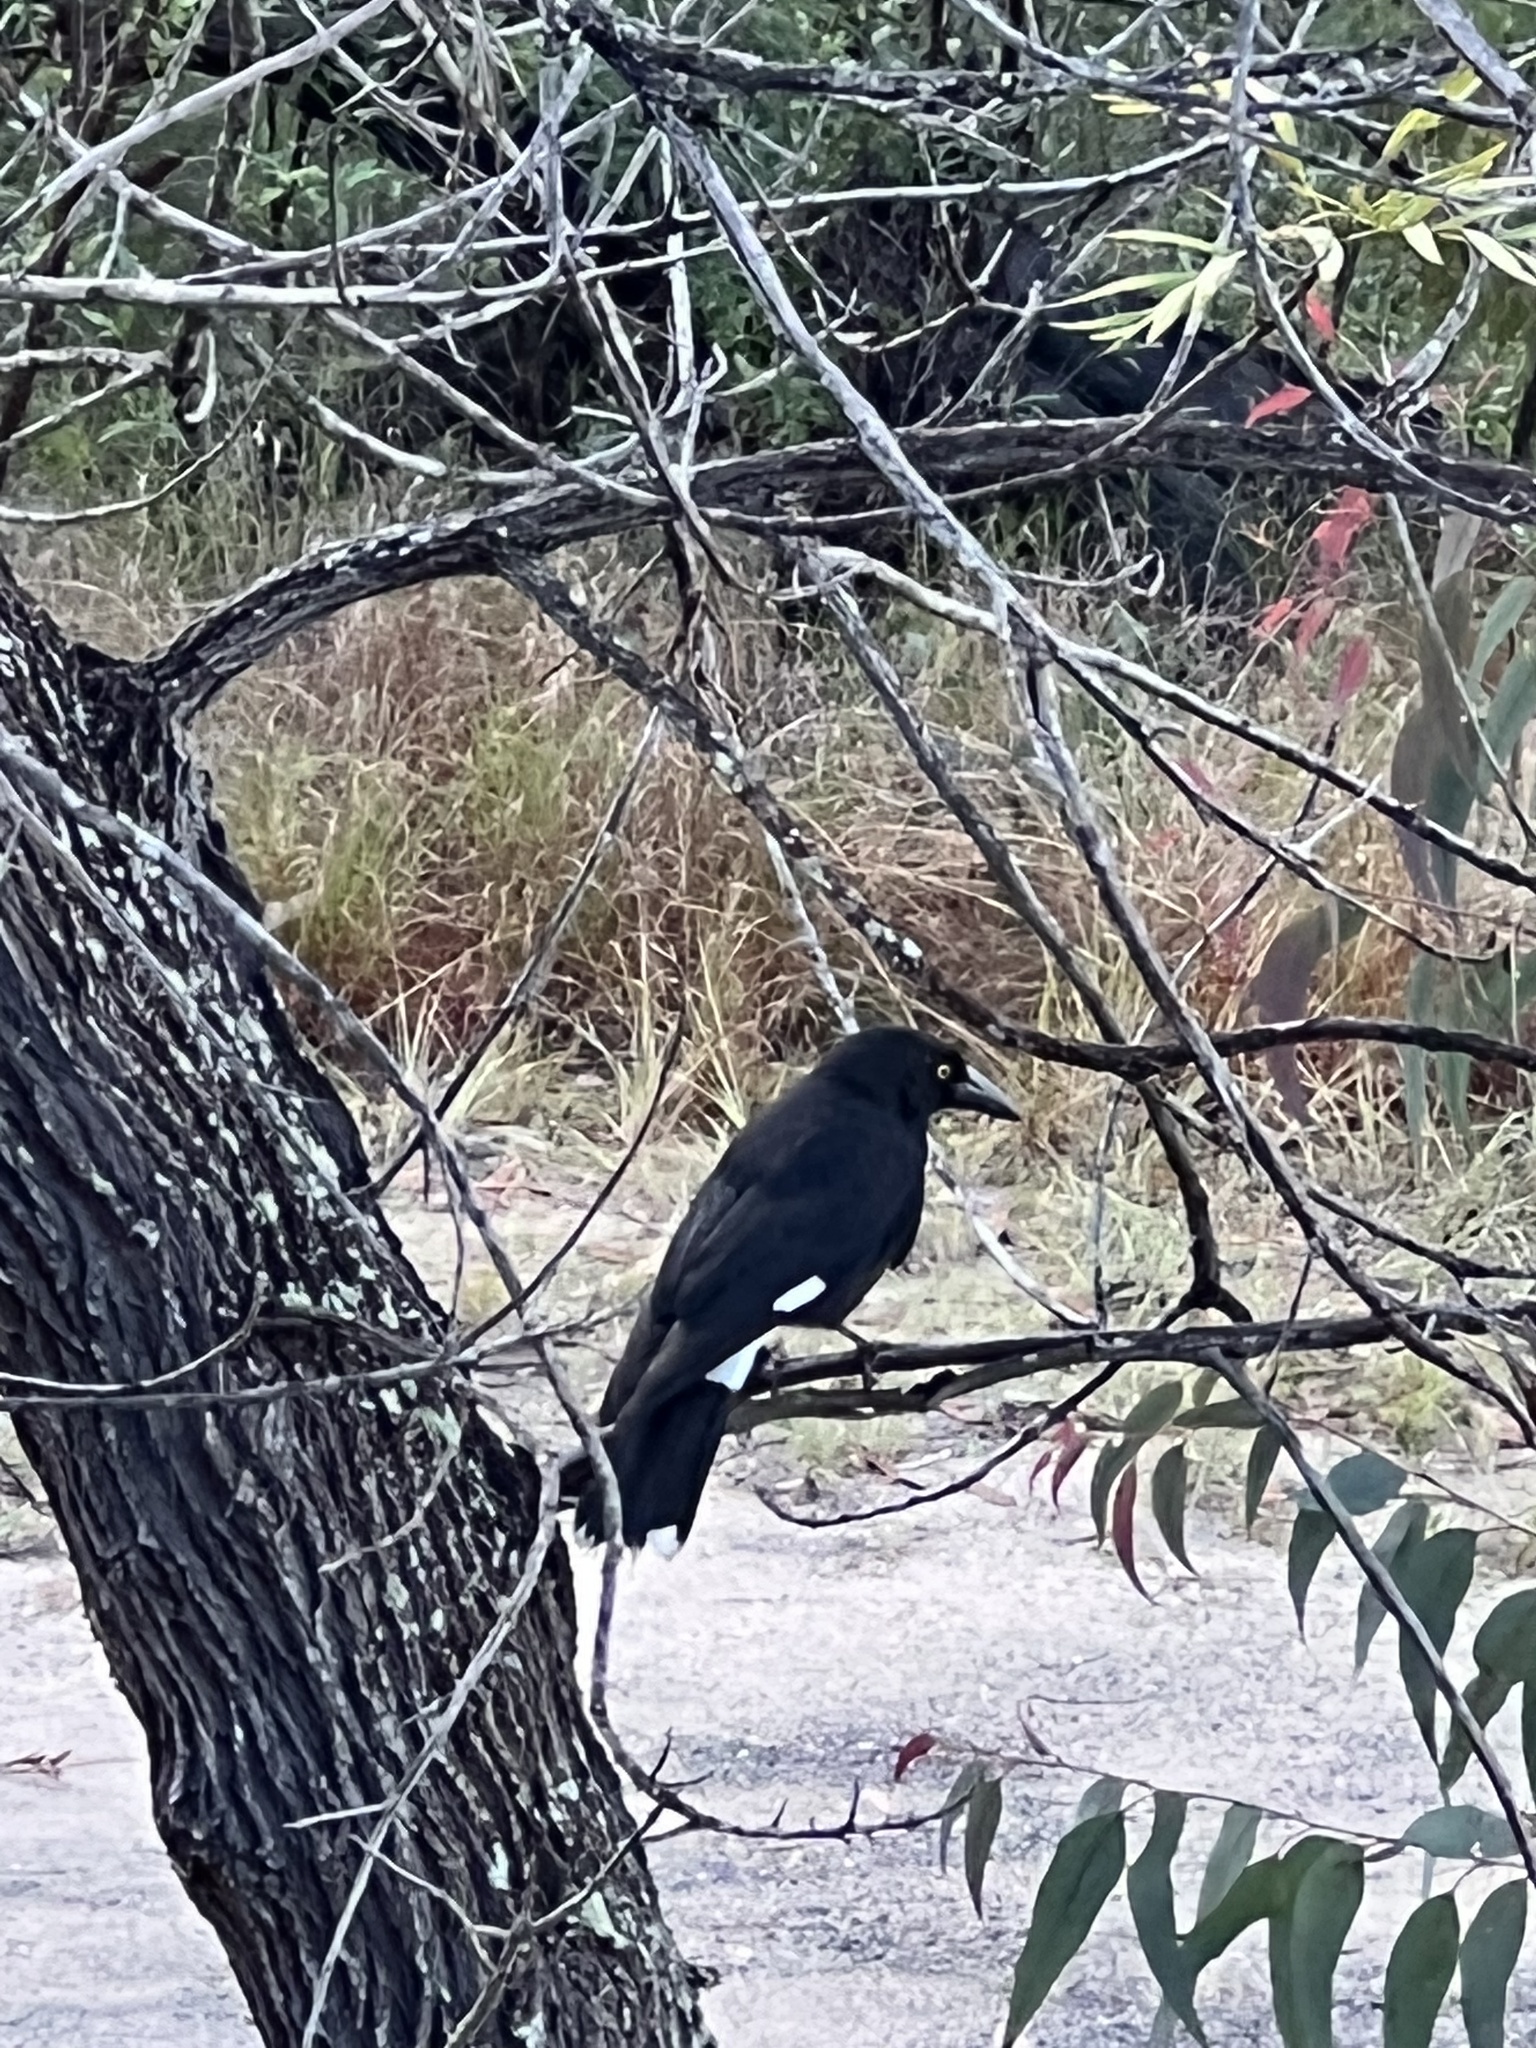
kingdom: Animalia
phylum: Chordata
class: Aves
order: Passeriformes
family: Cracticidae
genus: Strepera
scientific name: Strepera graculina
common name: Pied currawong
